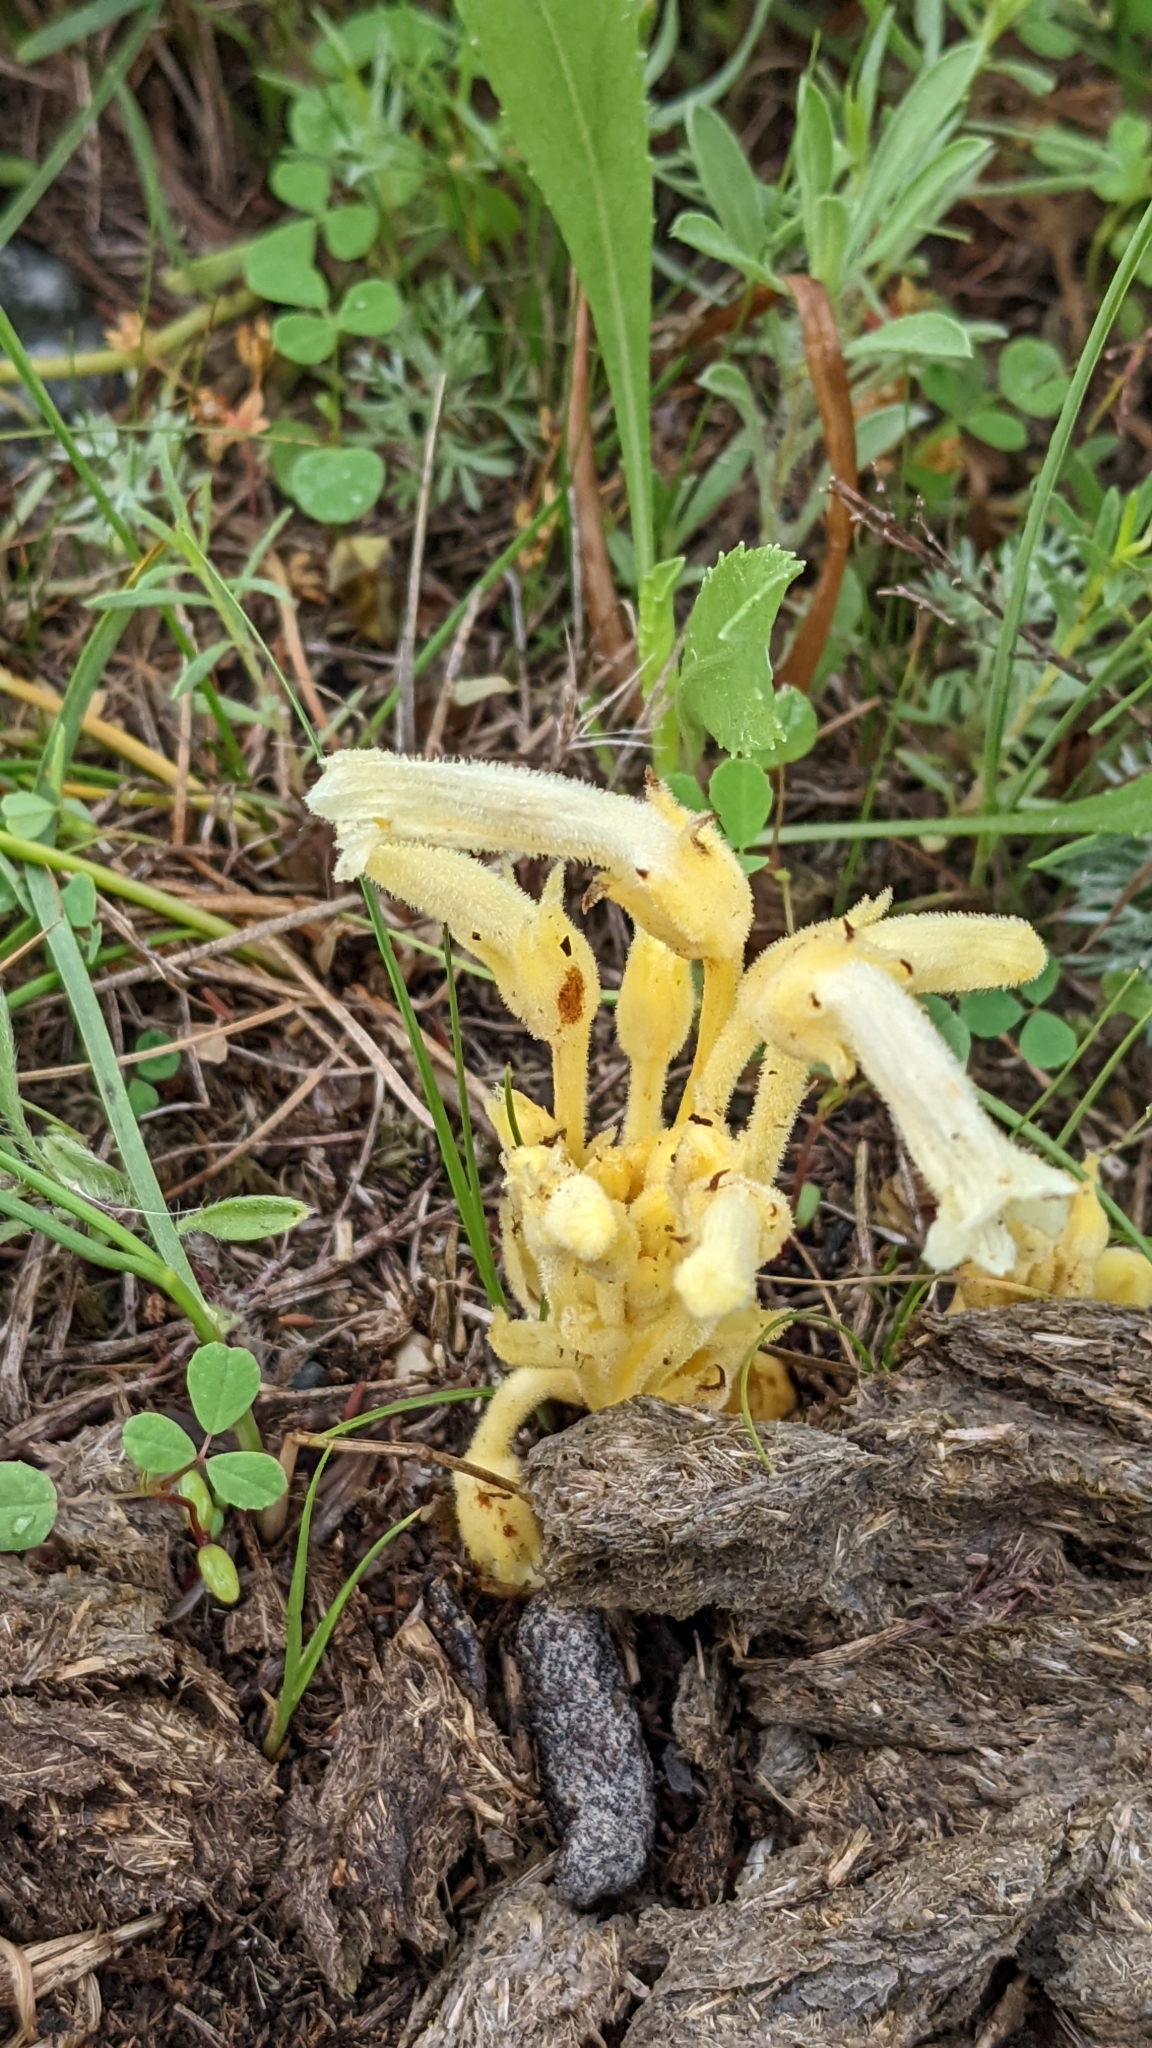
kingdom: Plantae
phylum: Tracheophyta
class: Magnoliopsida
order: Lamiales
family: Orobanchaceae
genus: Aphyllon
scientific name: Aphyllon fasciculatum
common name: Clustered broomrape
